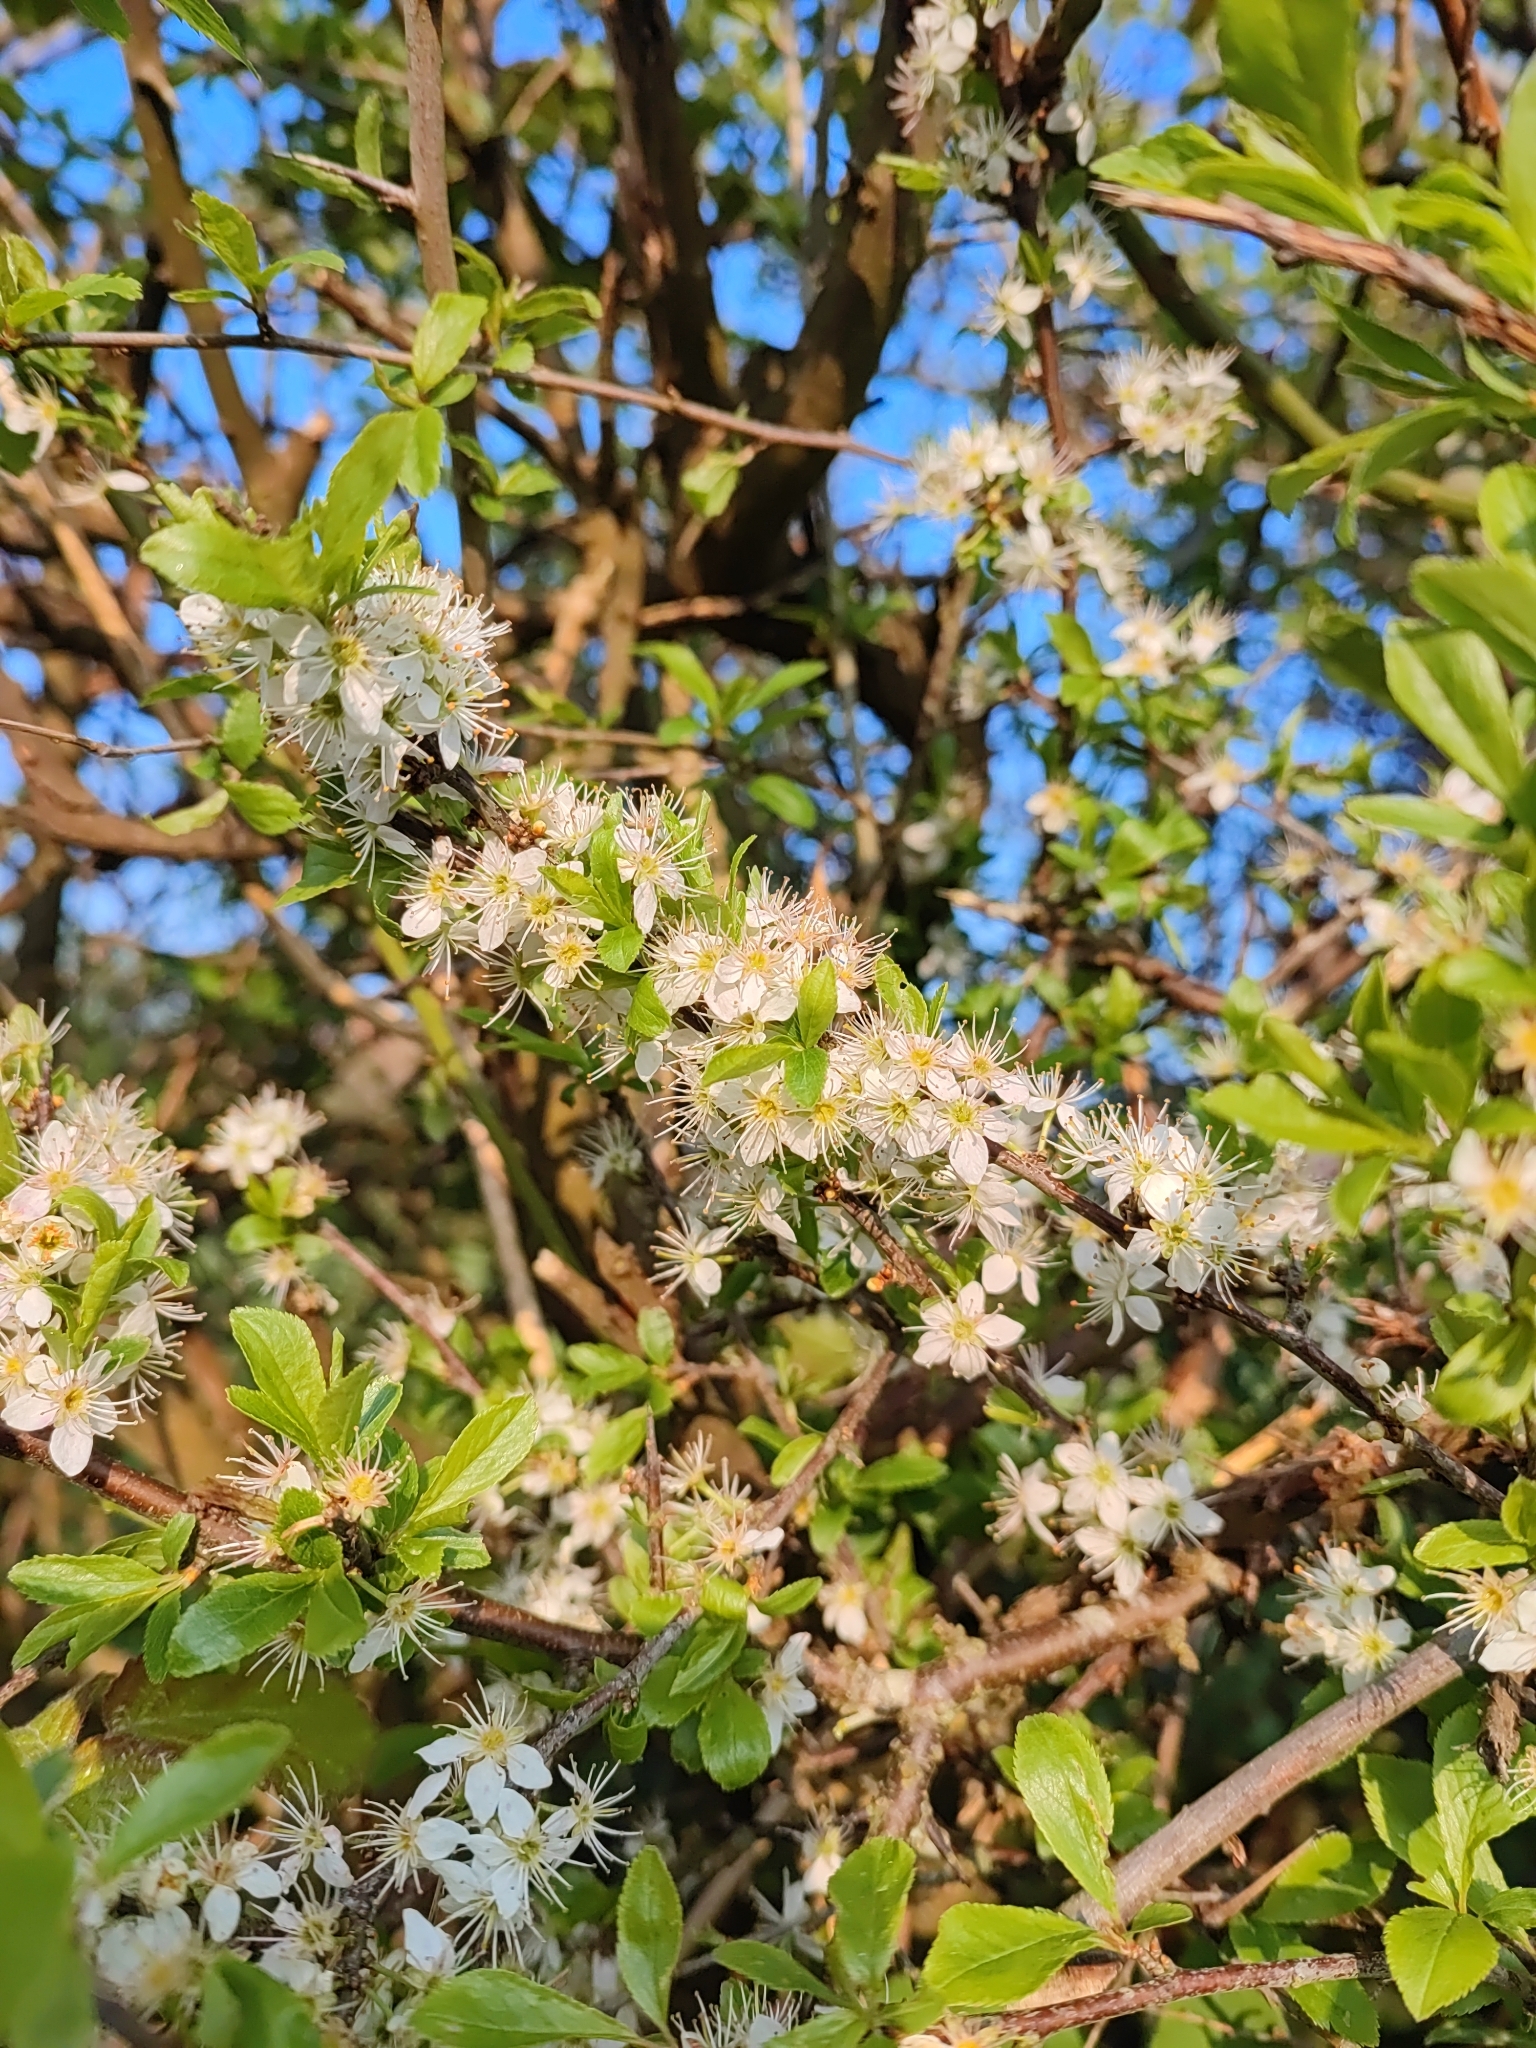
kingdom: Plantae
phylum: Tracheophyta
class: Magnoliopsida
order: Rosales
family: Rosaceae
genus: Prunus
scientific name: Prunus spinosa
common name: Blackthorn
